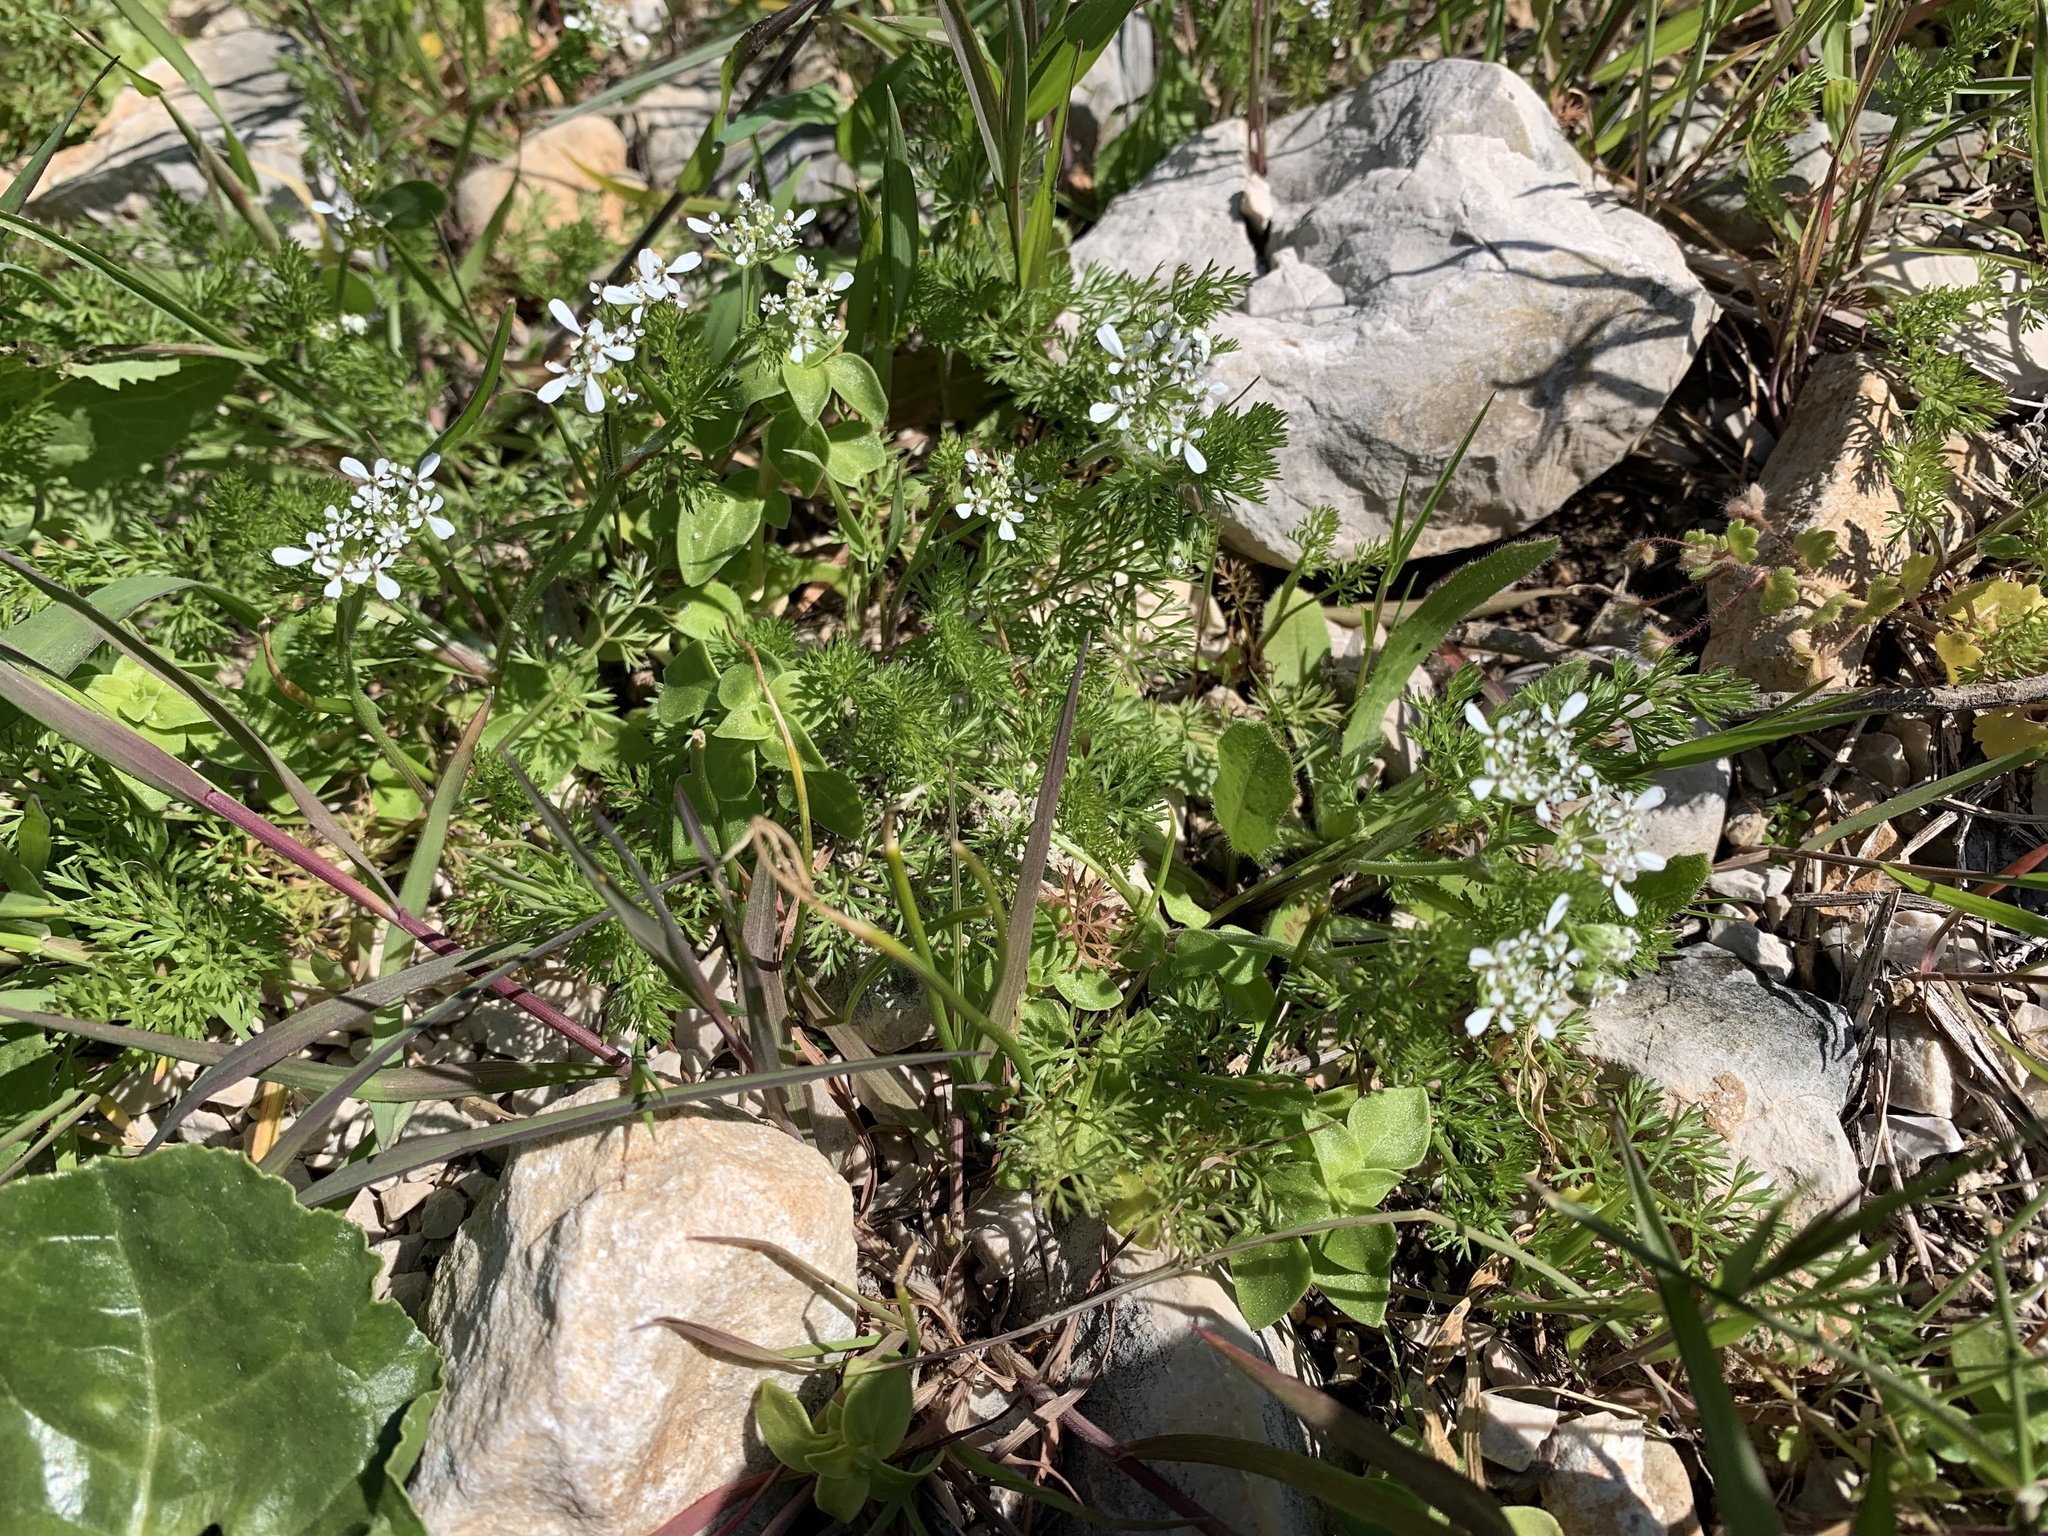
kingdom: Plantae
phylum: Tracheophyta
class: Magnoliopsida
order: Apiales
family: Apiaceae
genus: Scandix
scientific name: Scandix pecten-veneris
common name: Shepherd's-needle
